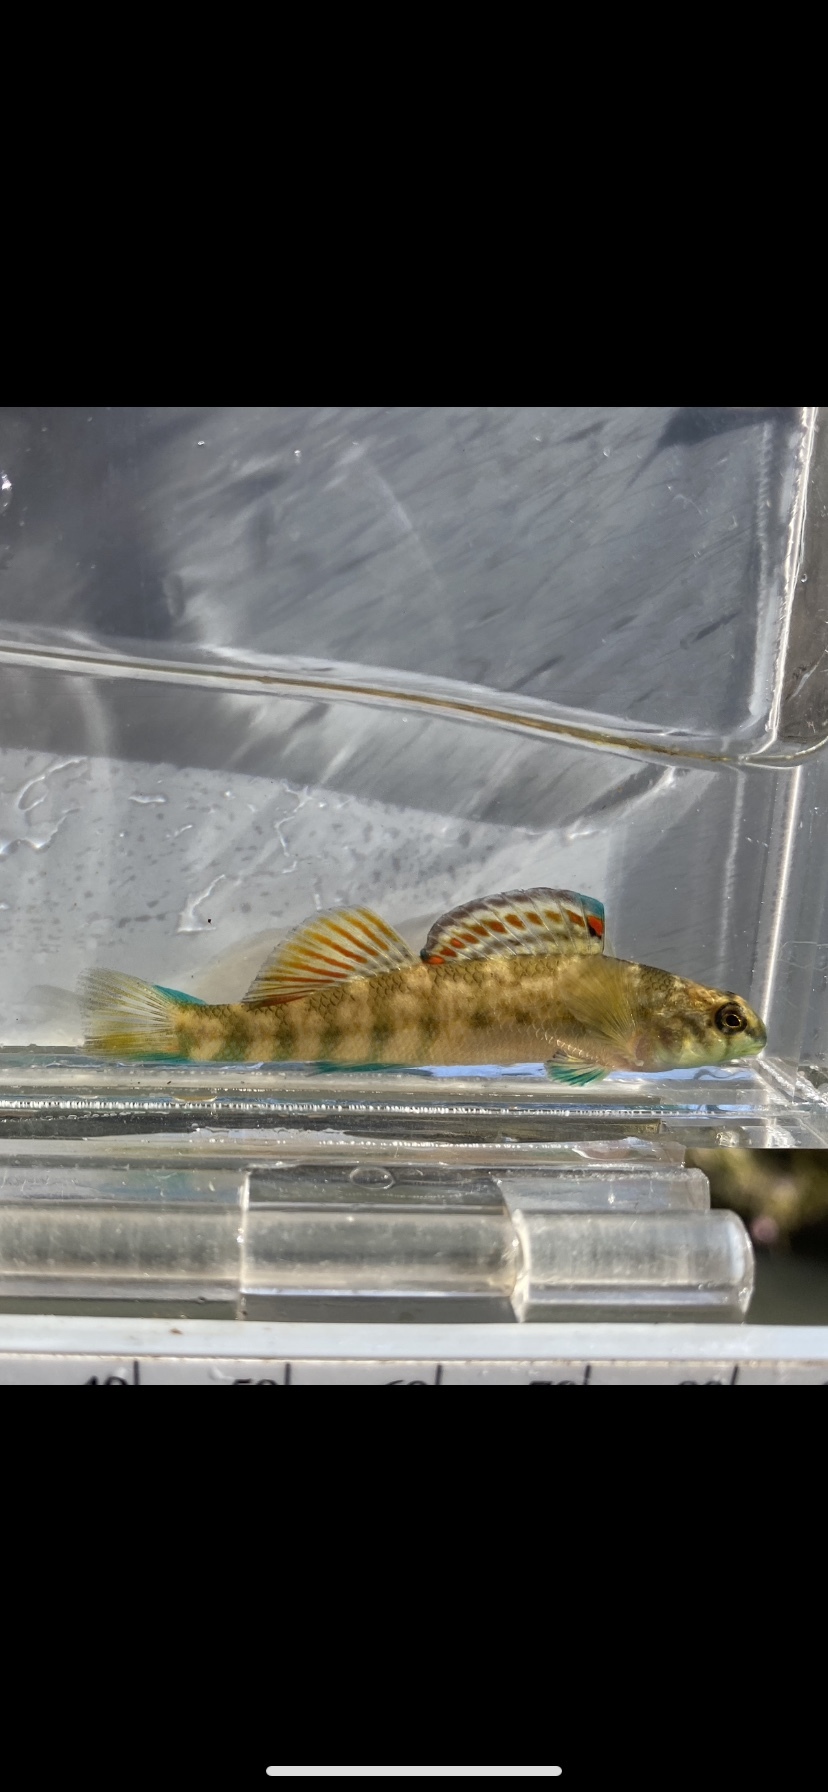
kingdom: Animalia
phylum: Chordata
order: Perciformes
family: Percidae
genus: Etheostoma
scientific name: Etheostoma coosae
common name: Coosa darter
